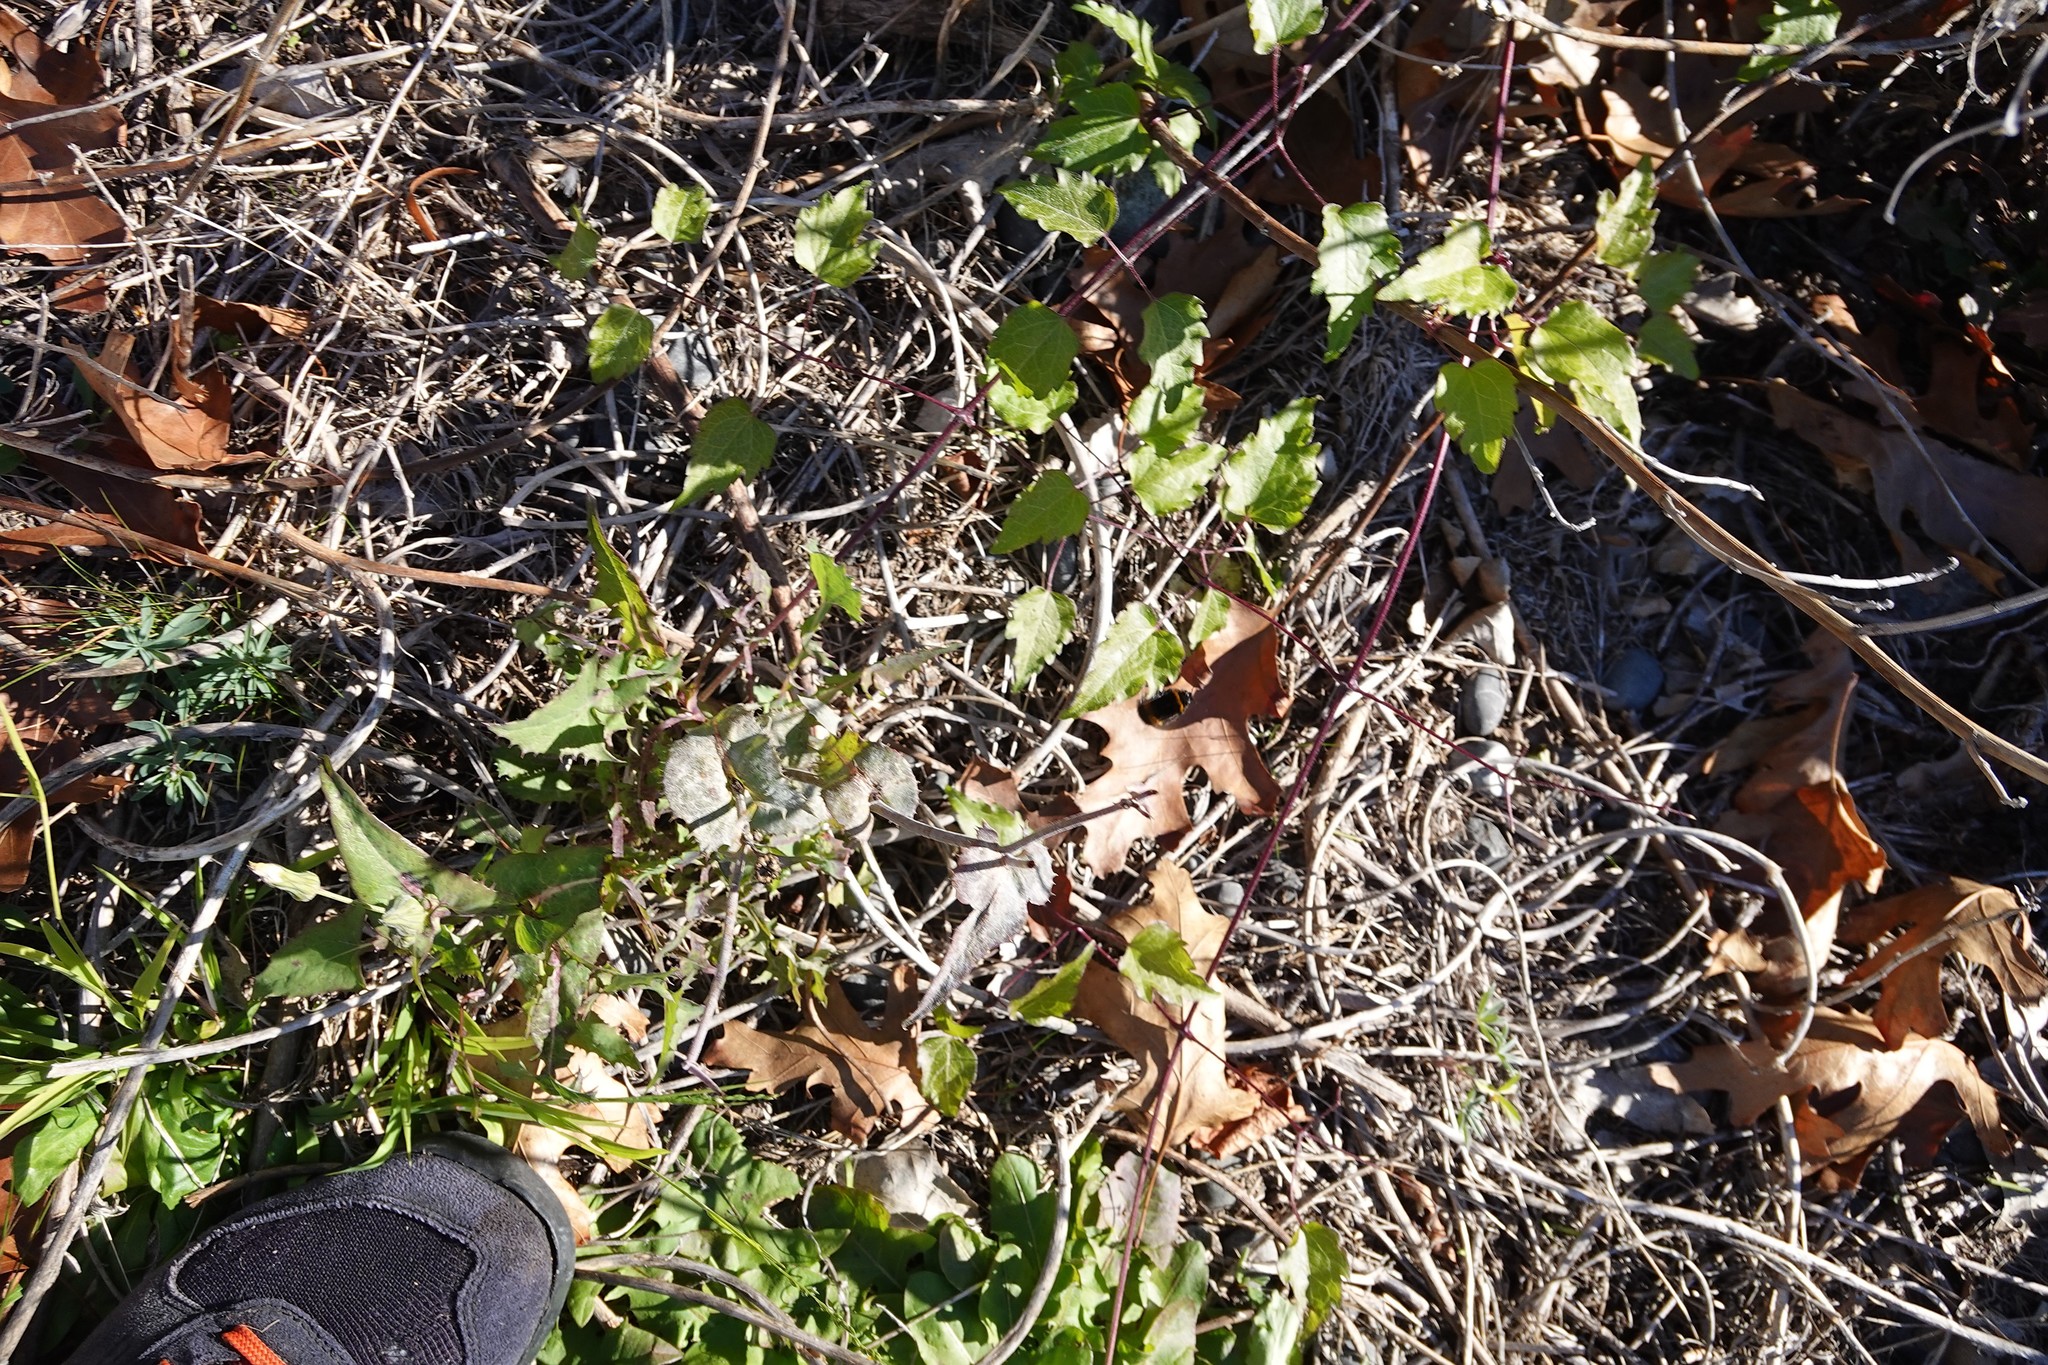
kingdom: Plantae
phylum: Tracheophyta
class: Magnoliopsida
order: Ranunculales
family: Ranunculaceae
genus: Clematis
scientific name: Clematis vitalba
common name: Evergreen clematis
